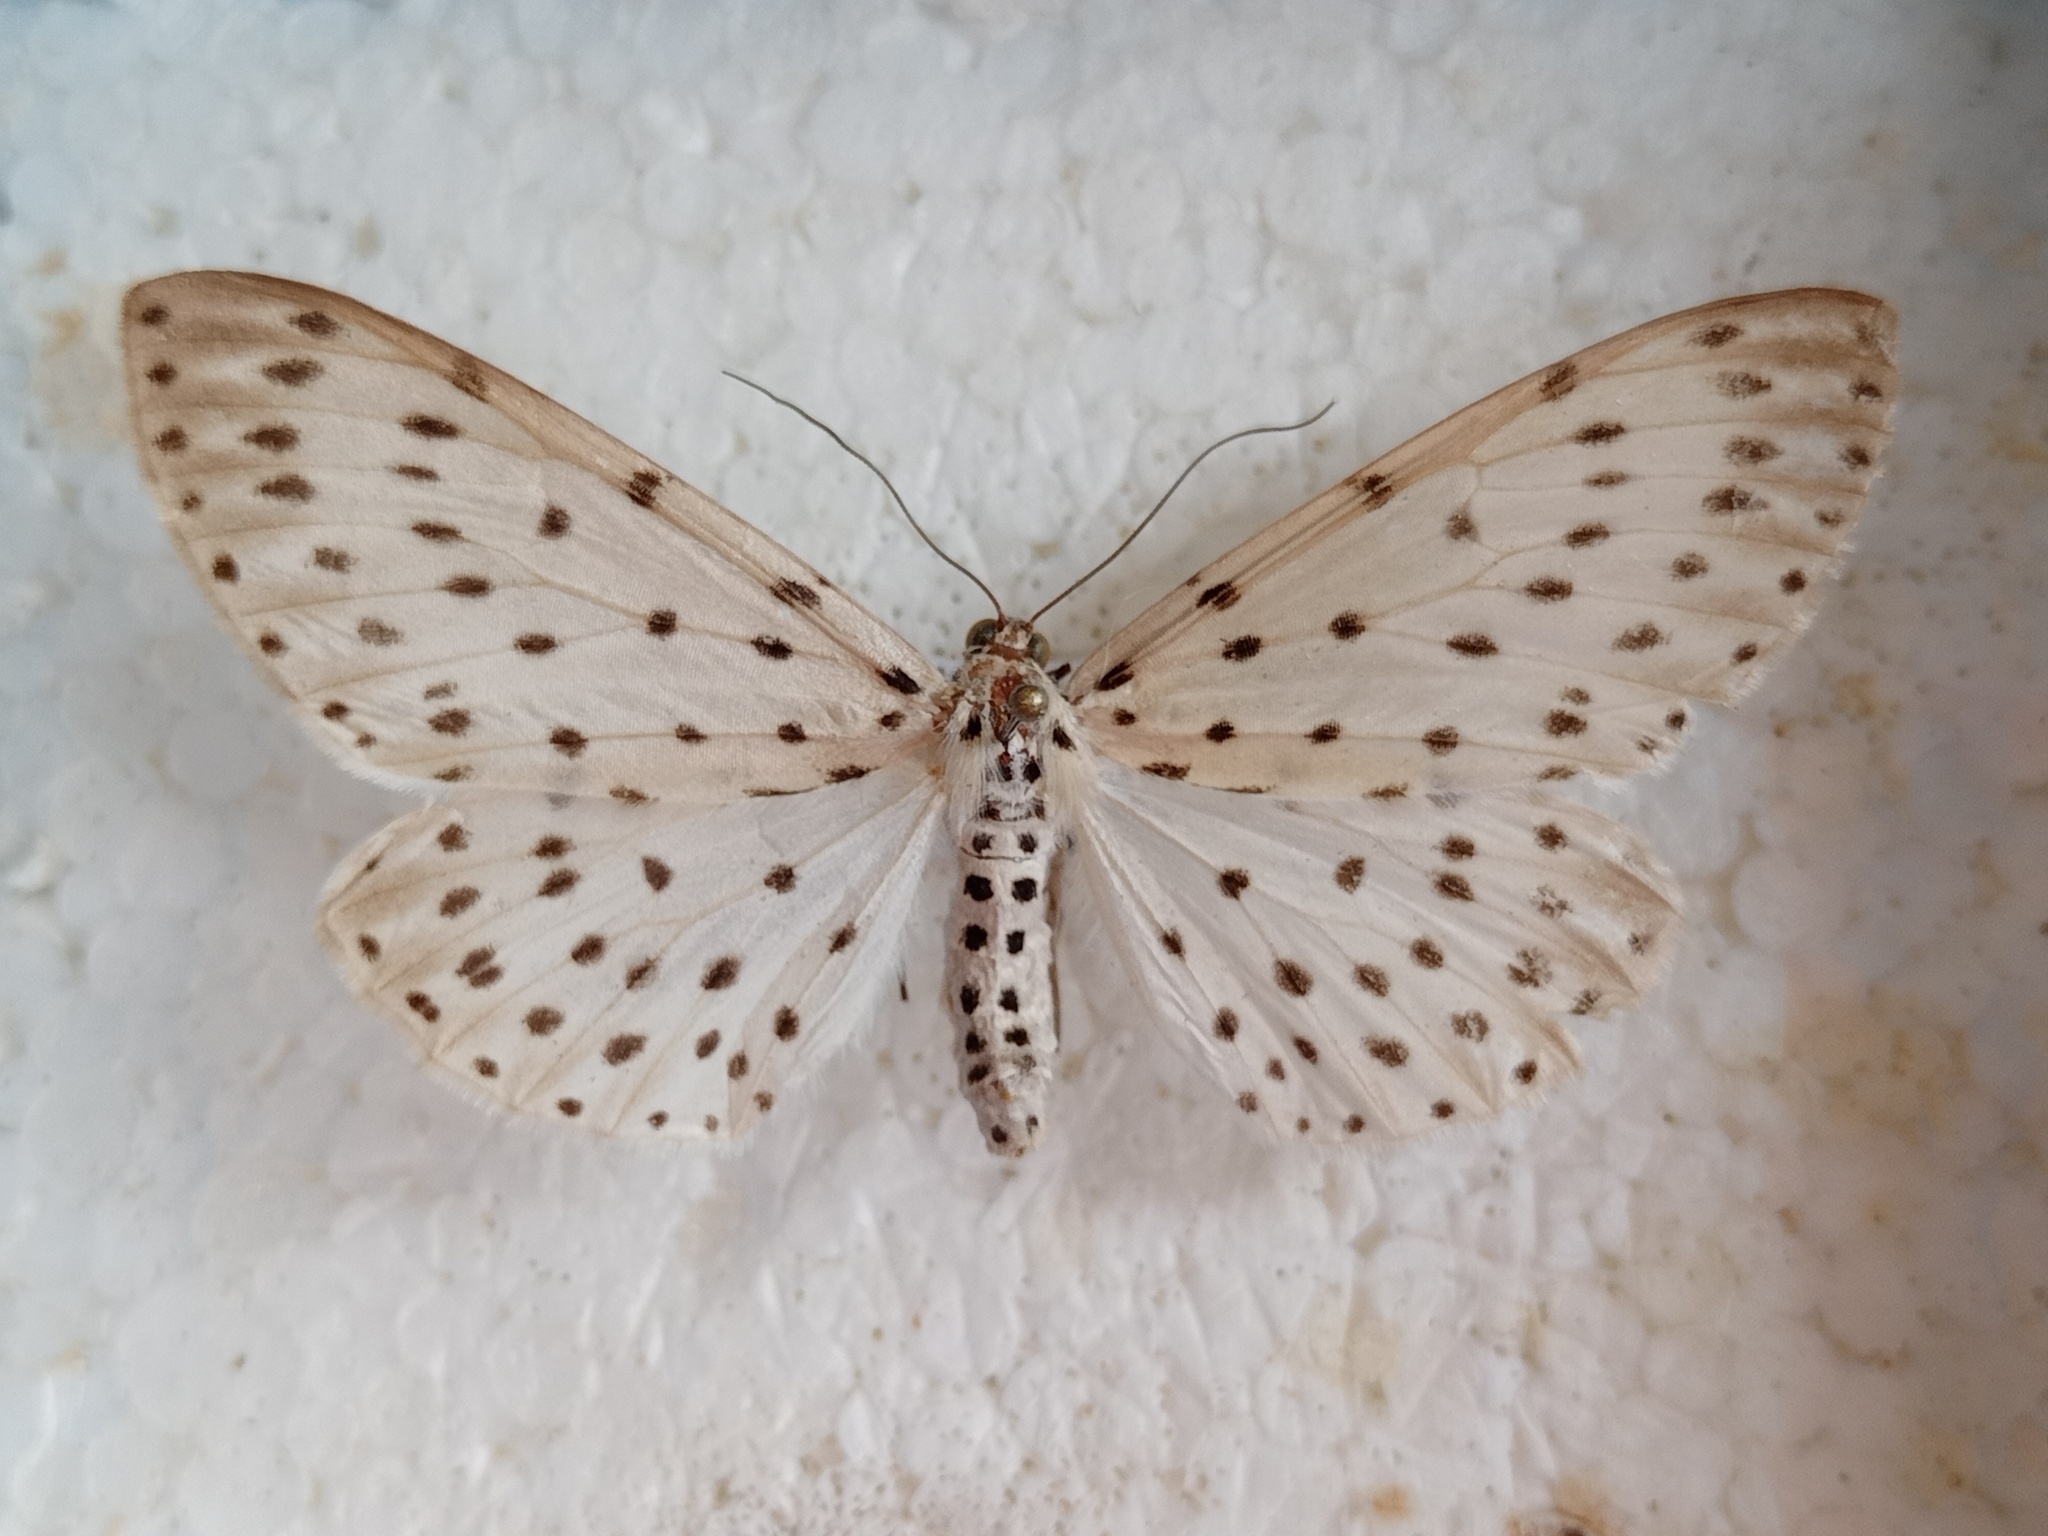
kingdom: Animalia
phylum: Arthropoda
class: Insecta
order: Lepidoptera
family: Geometridae
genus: Antipercnia
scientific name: Antipercnia belluaria
